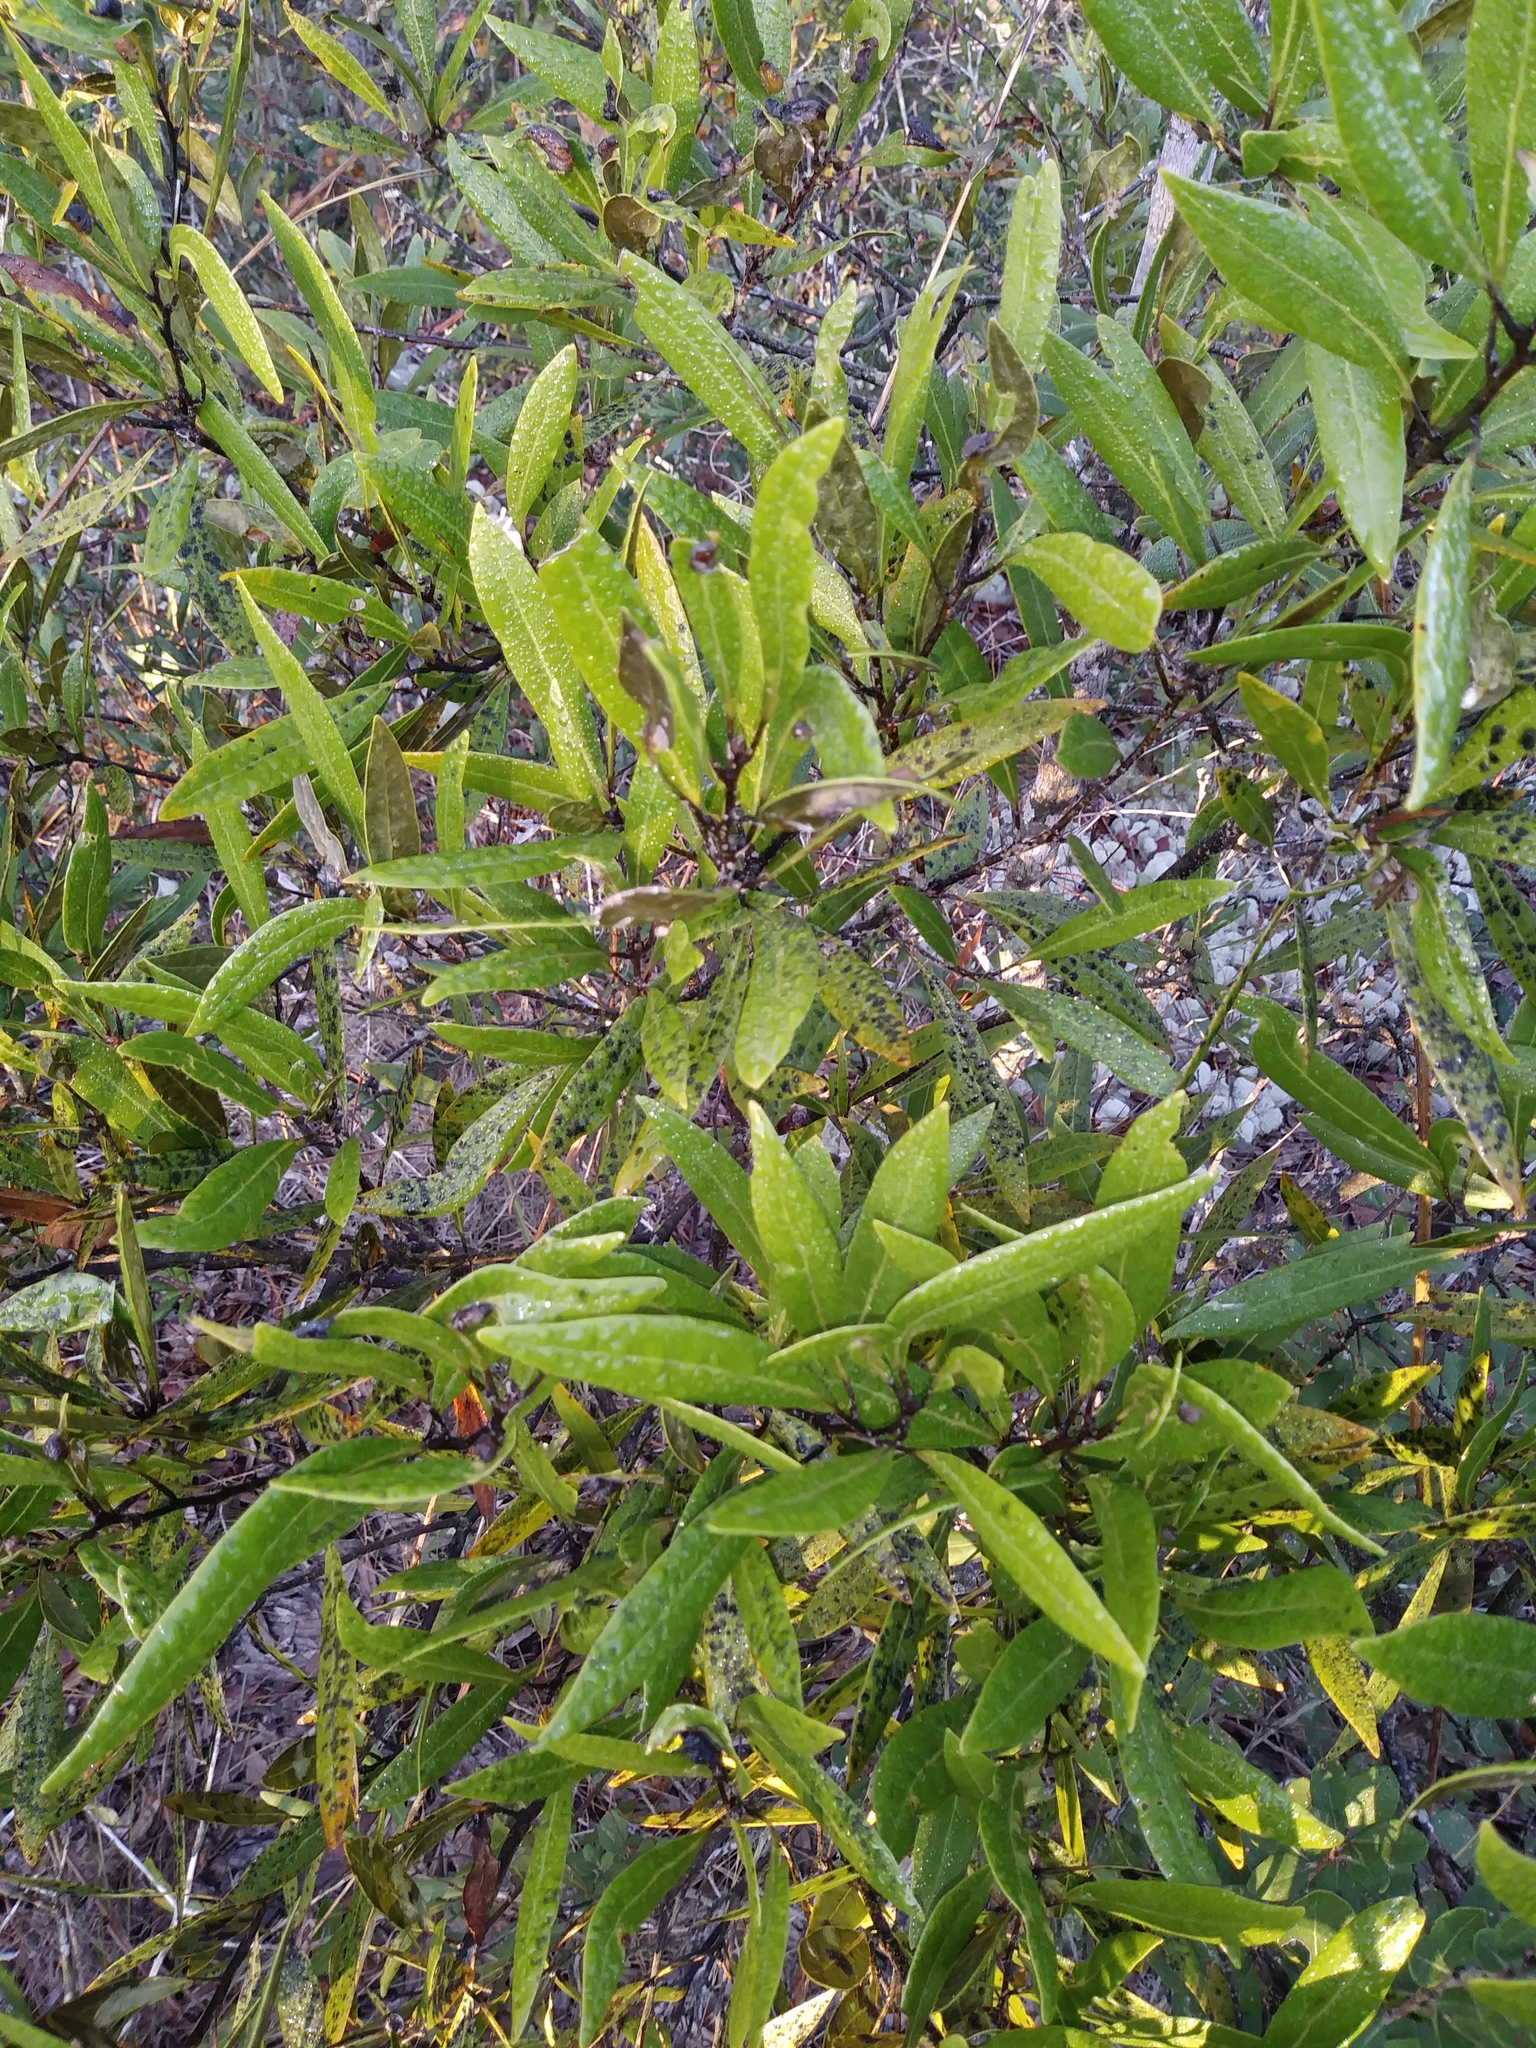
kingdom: Plantae
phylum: Tracheophyta
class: Magnoliopsida
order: Laurales
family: Lauraceae
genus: Persea
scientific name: Persea humilis
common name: Silkbay
